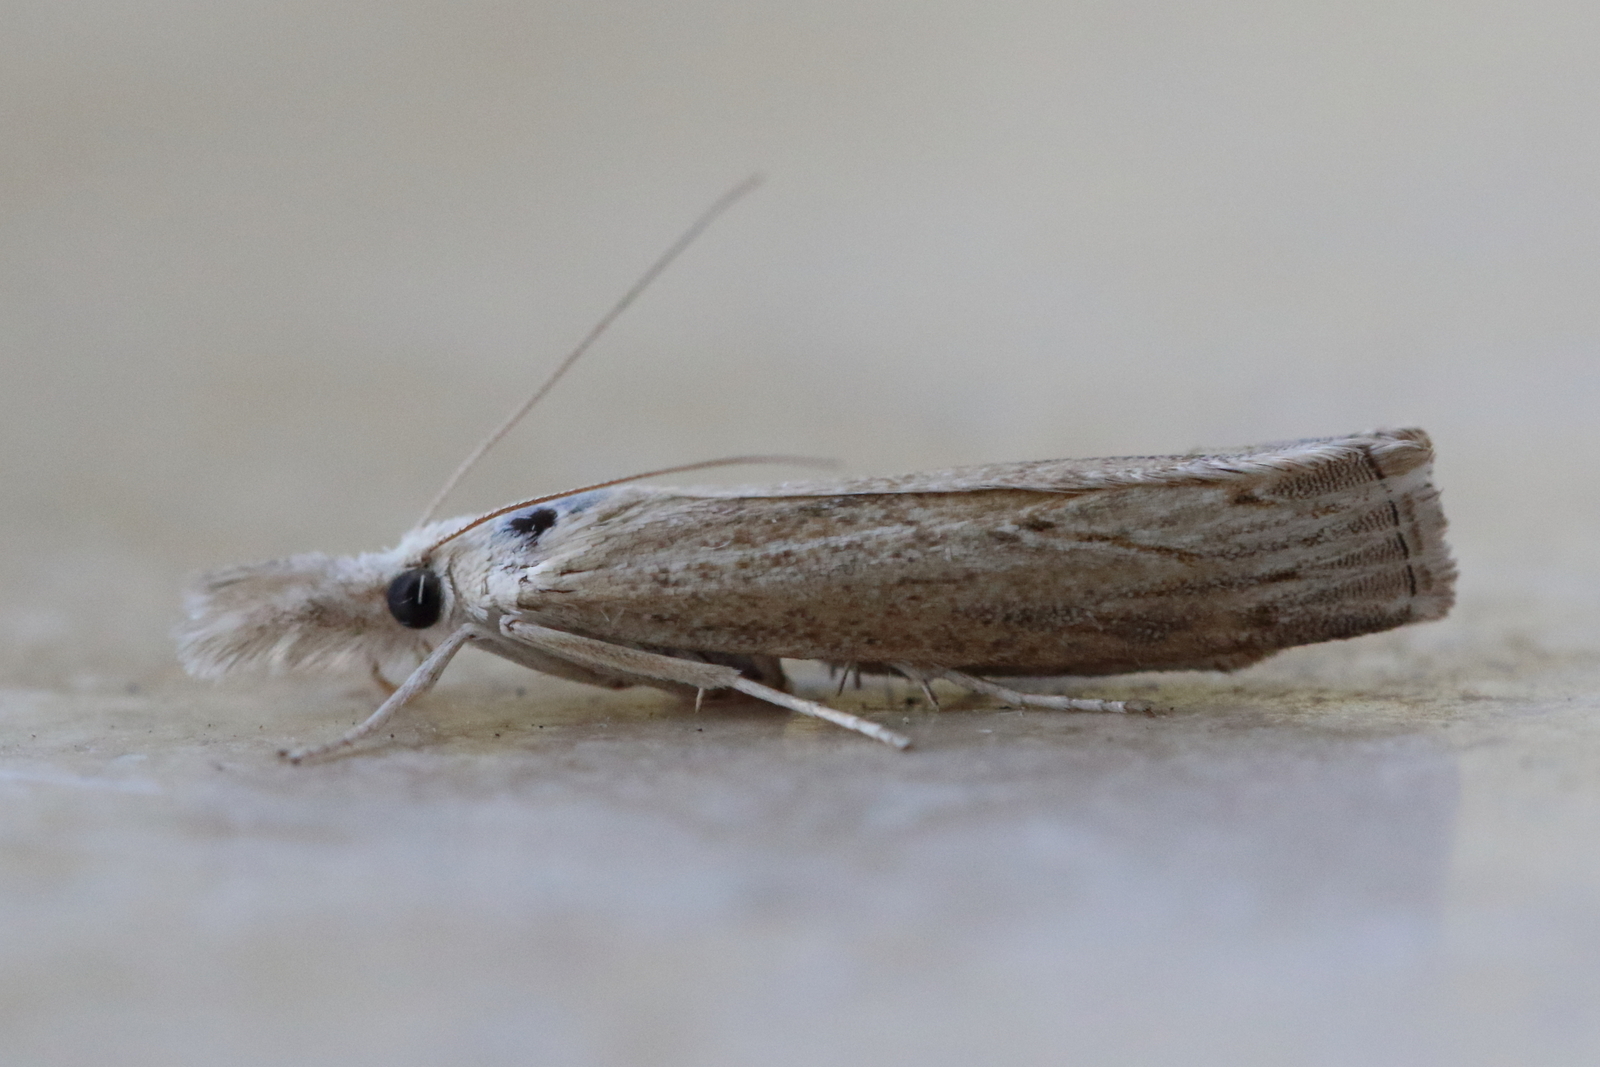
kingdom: Animalia
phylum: Arthropoda
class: Insecta
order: Lepidoptera
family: Crambidae
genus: Culladia
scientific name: Culladia cuneiferellus
